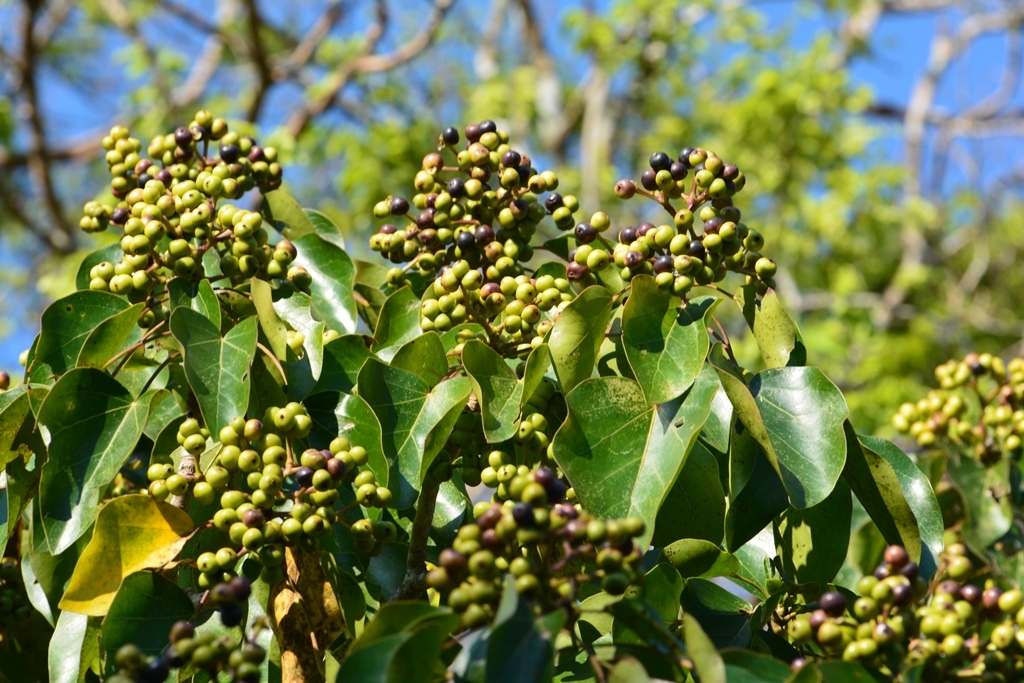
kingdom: Plantae
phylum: Tracheophyta
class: Magnoliopsida
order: Apiales
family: Araliaceae
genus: Oreopanax
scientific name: Oreopanax platyphyllus
